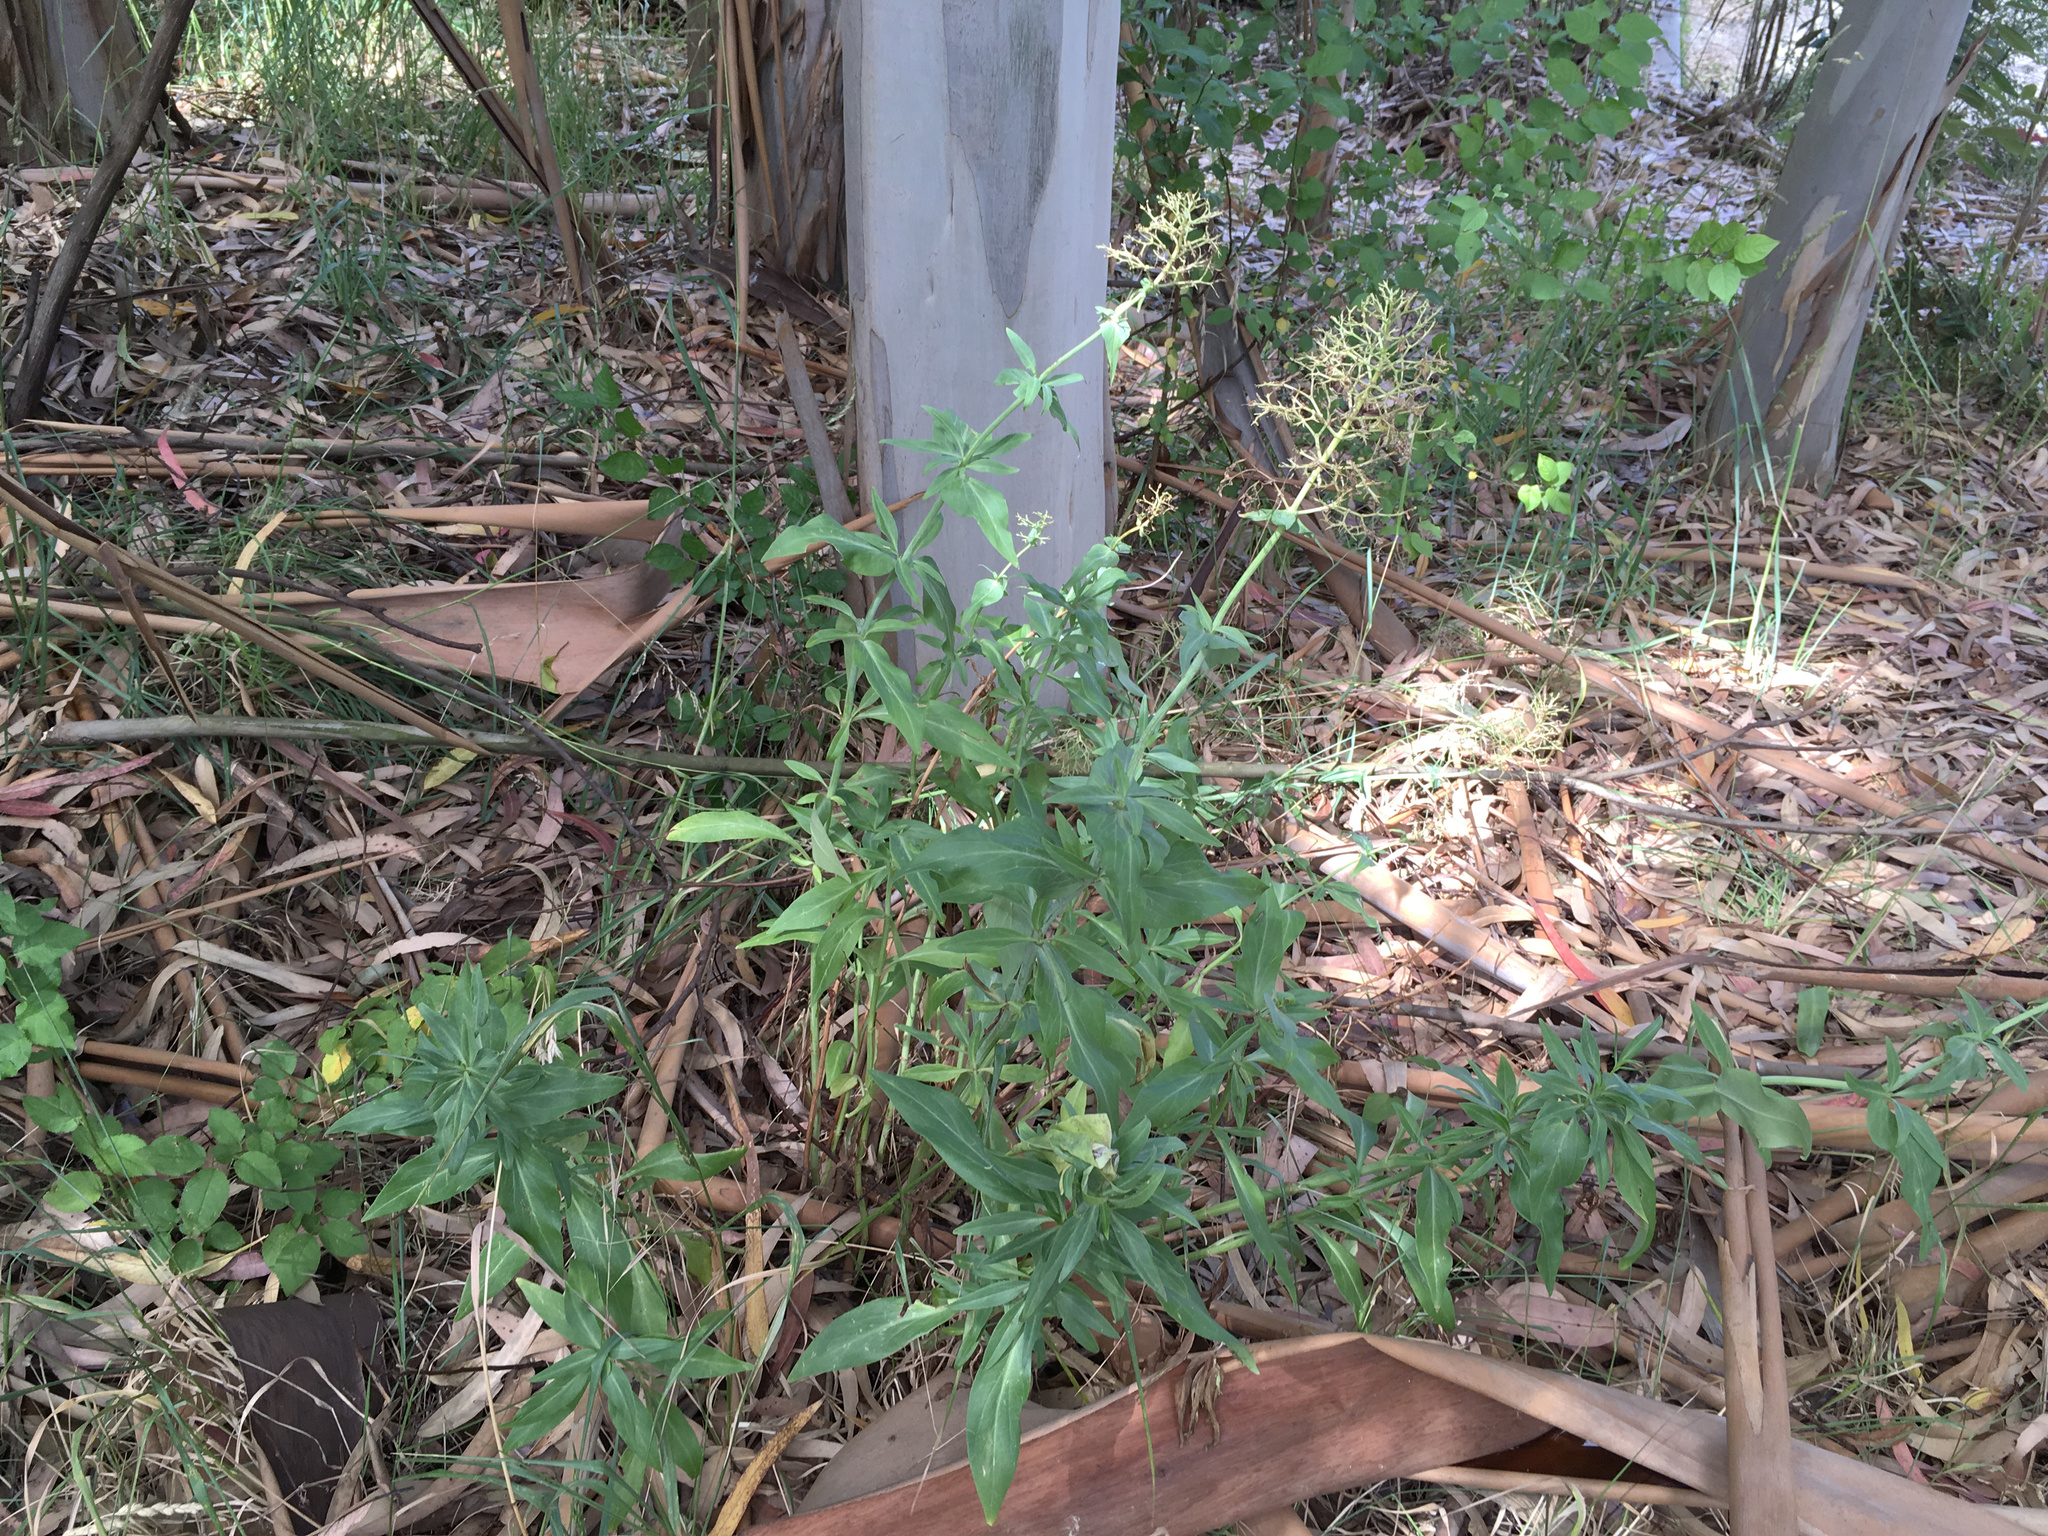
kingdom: Plantae
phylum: Tracheophyta
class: Magnoliopsida
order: Dipsacales
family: Caprifoliaceae
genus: Centranthus
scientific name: Centranthus ruber
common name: Red valerian
